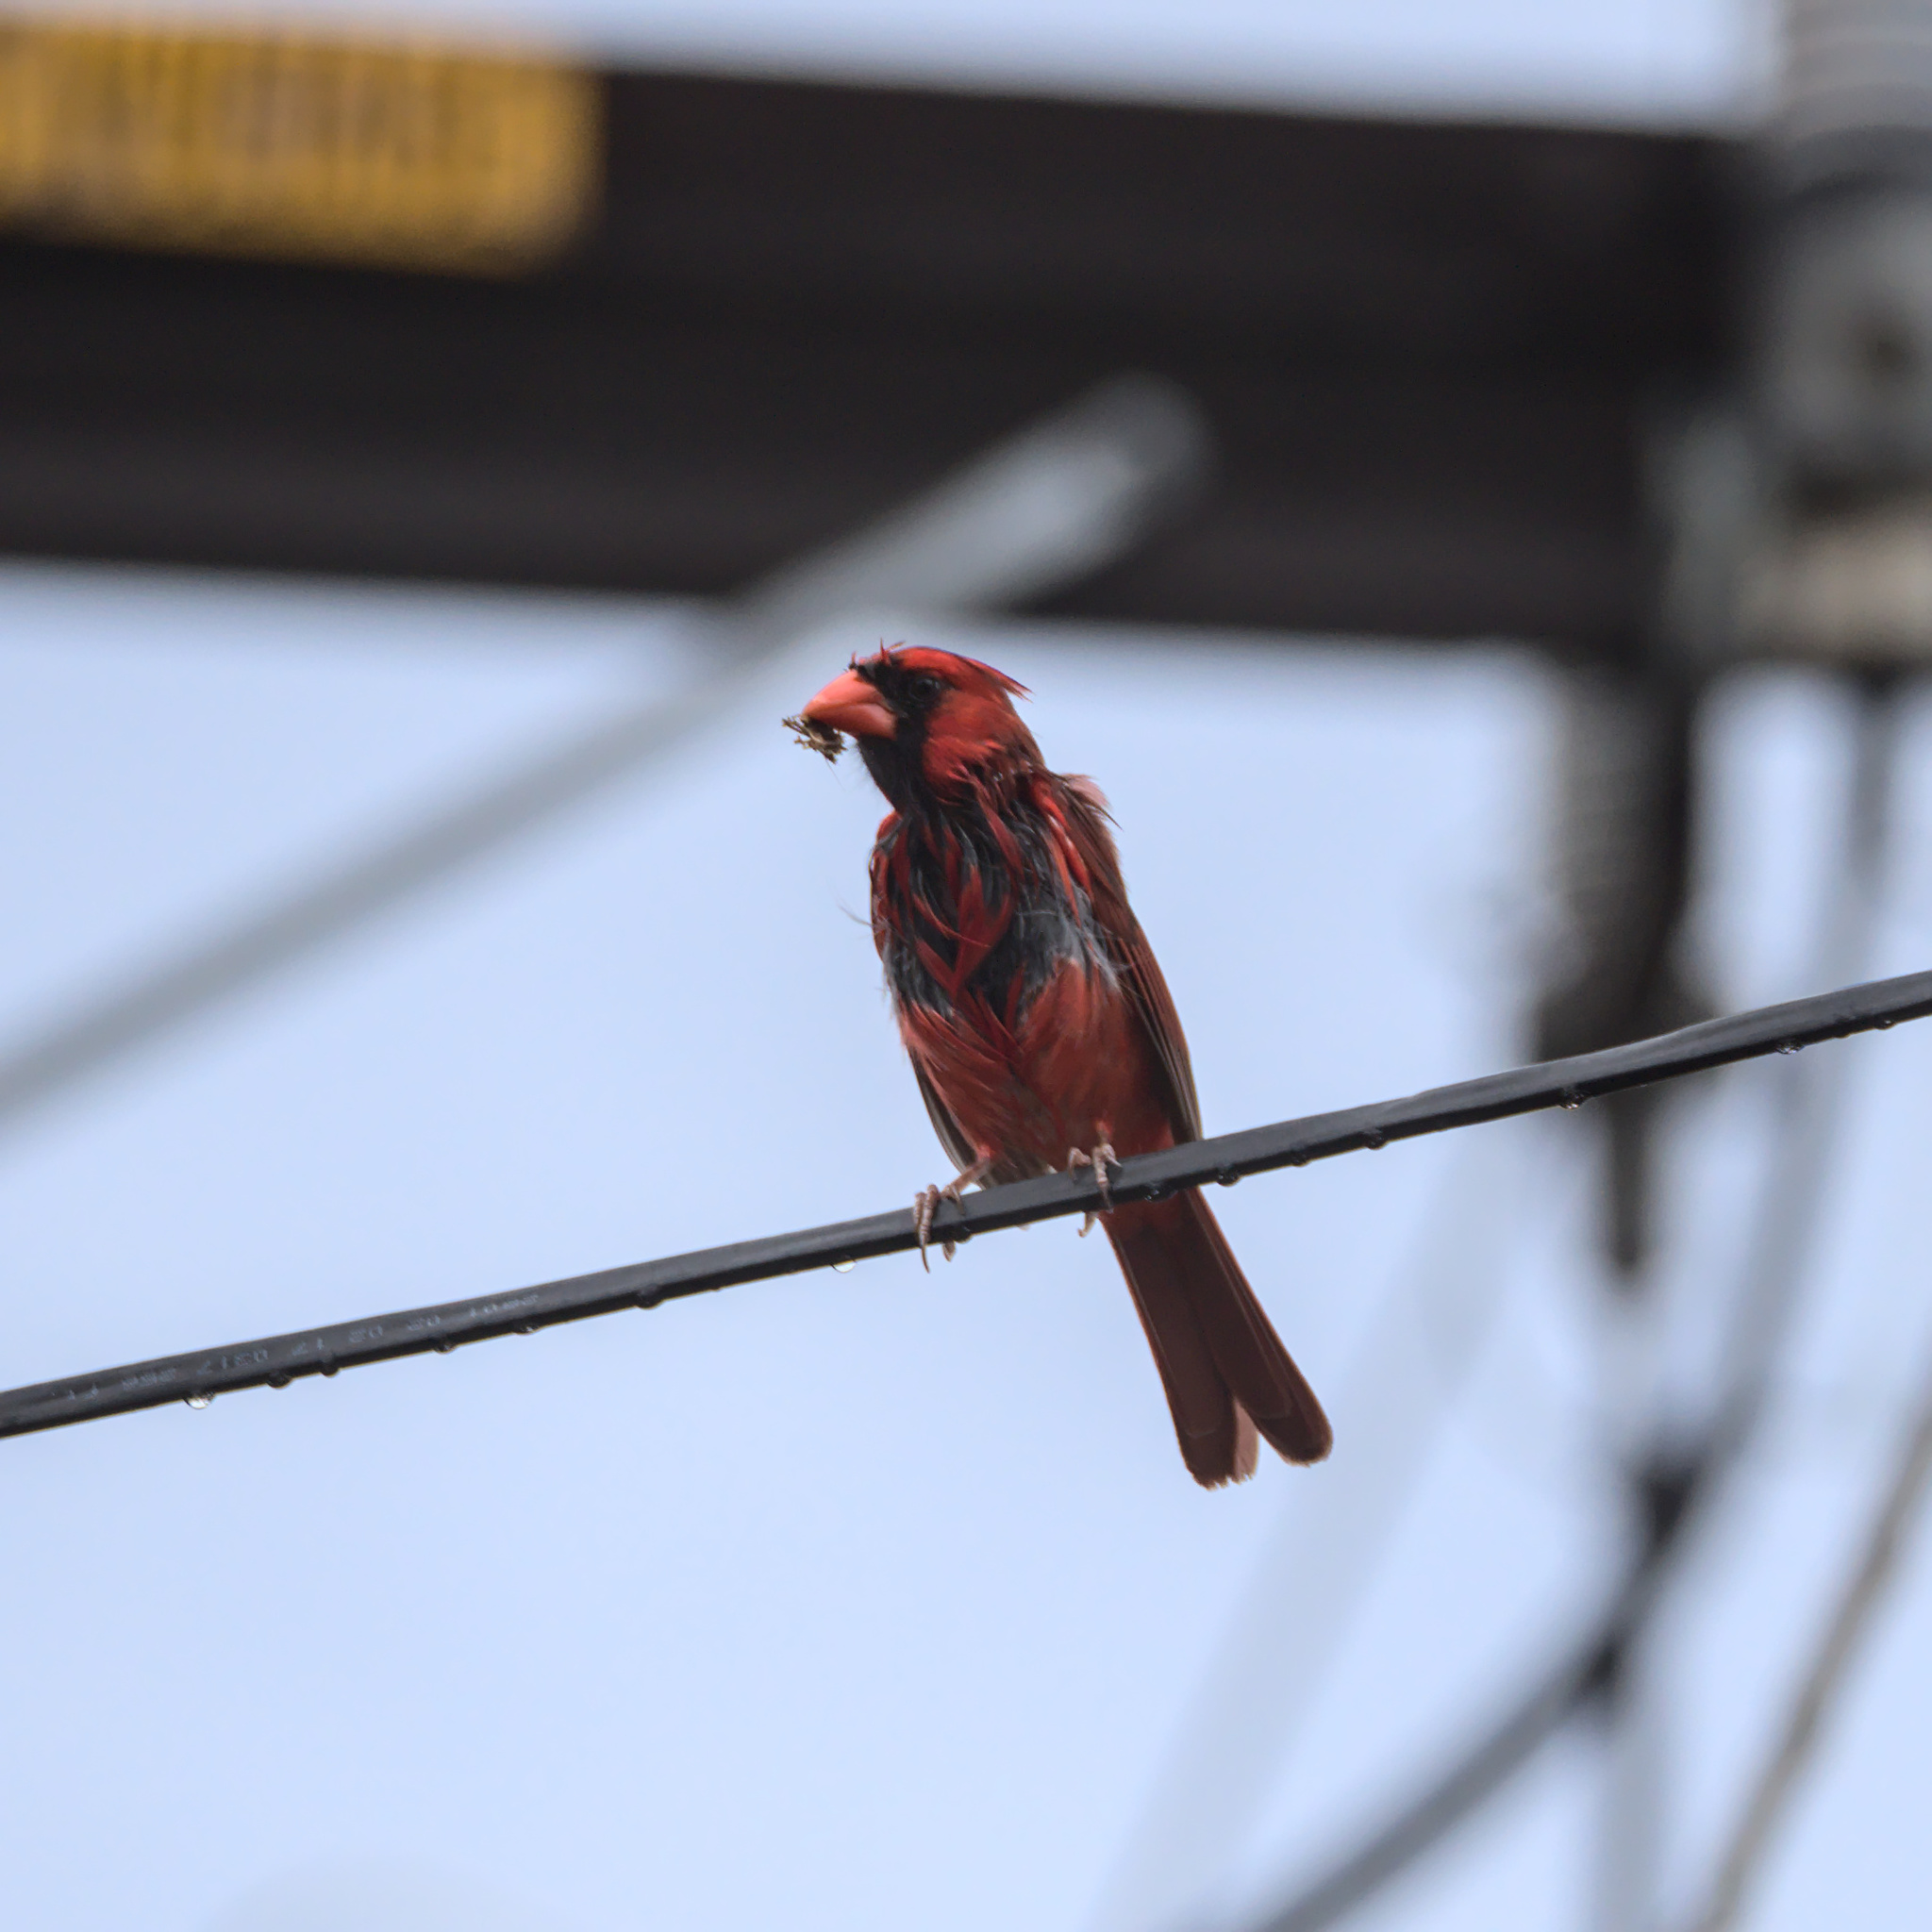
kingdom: Animalia
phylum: Chordata
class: Aves
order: Passeriformes
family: Cardinalidae
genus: Cardinalis
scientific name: Cardinalis cardinalis
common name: Northern cardinal
